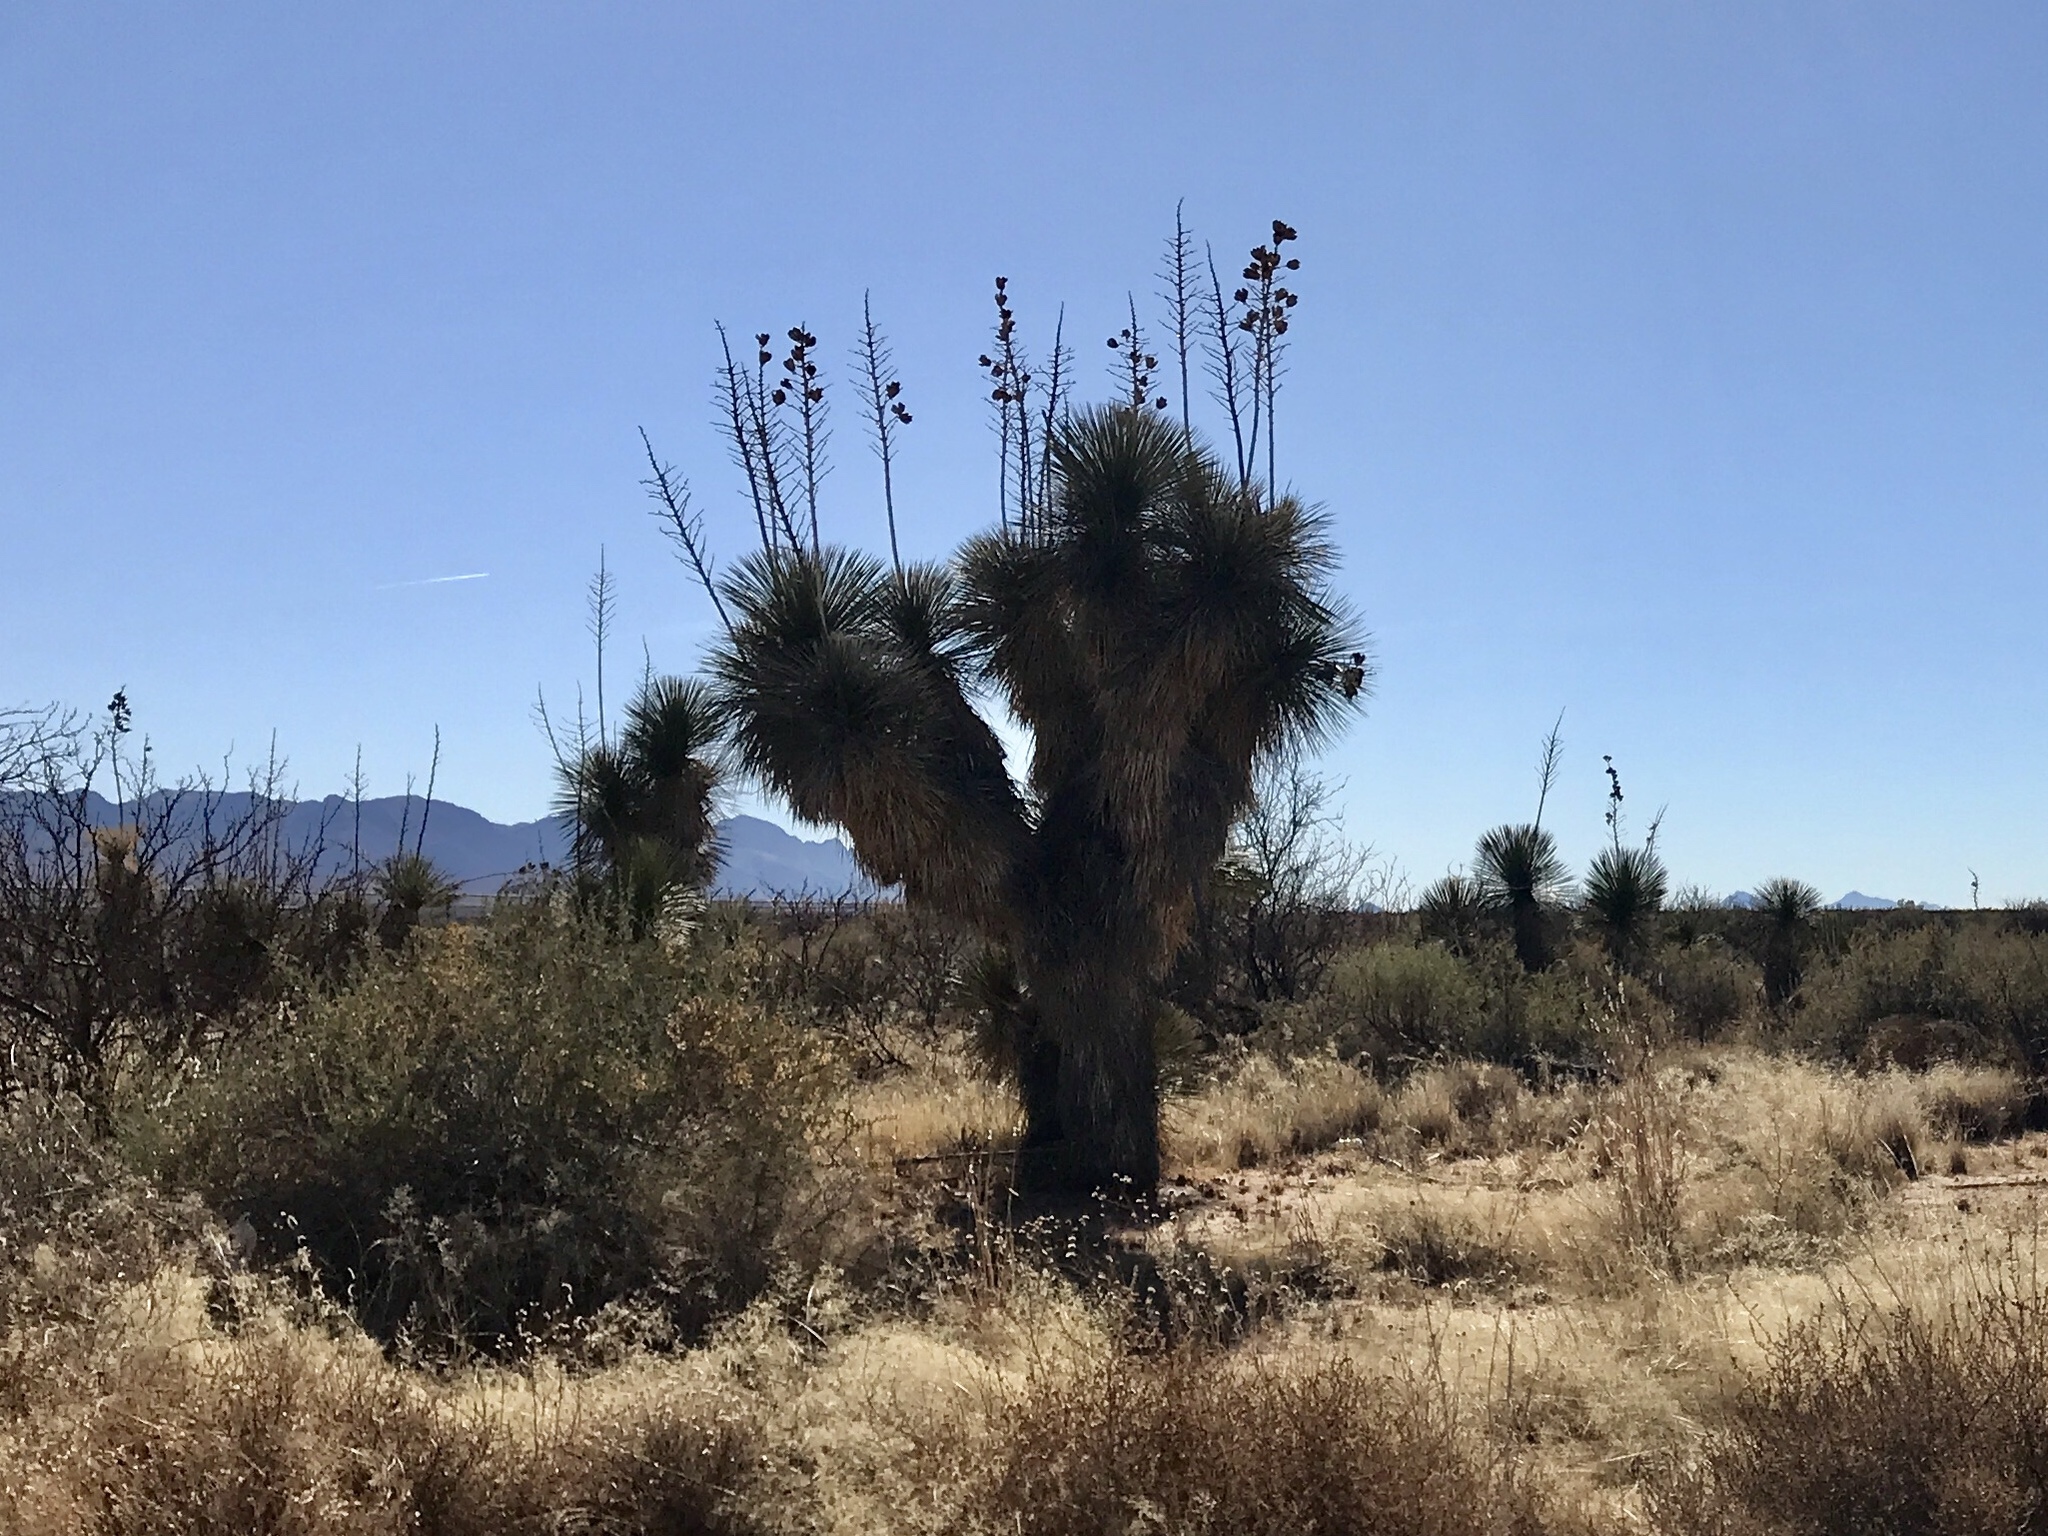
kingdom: Plantae
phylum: Tracheophyta
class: Liliopsida
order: Asparagales
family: Asparagaceae
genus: Yucca
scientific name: Yucca elata
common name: Palmella
